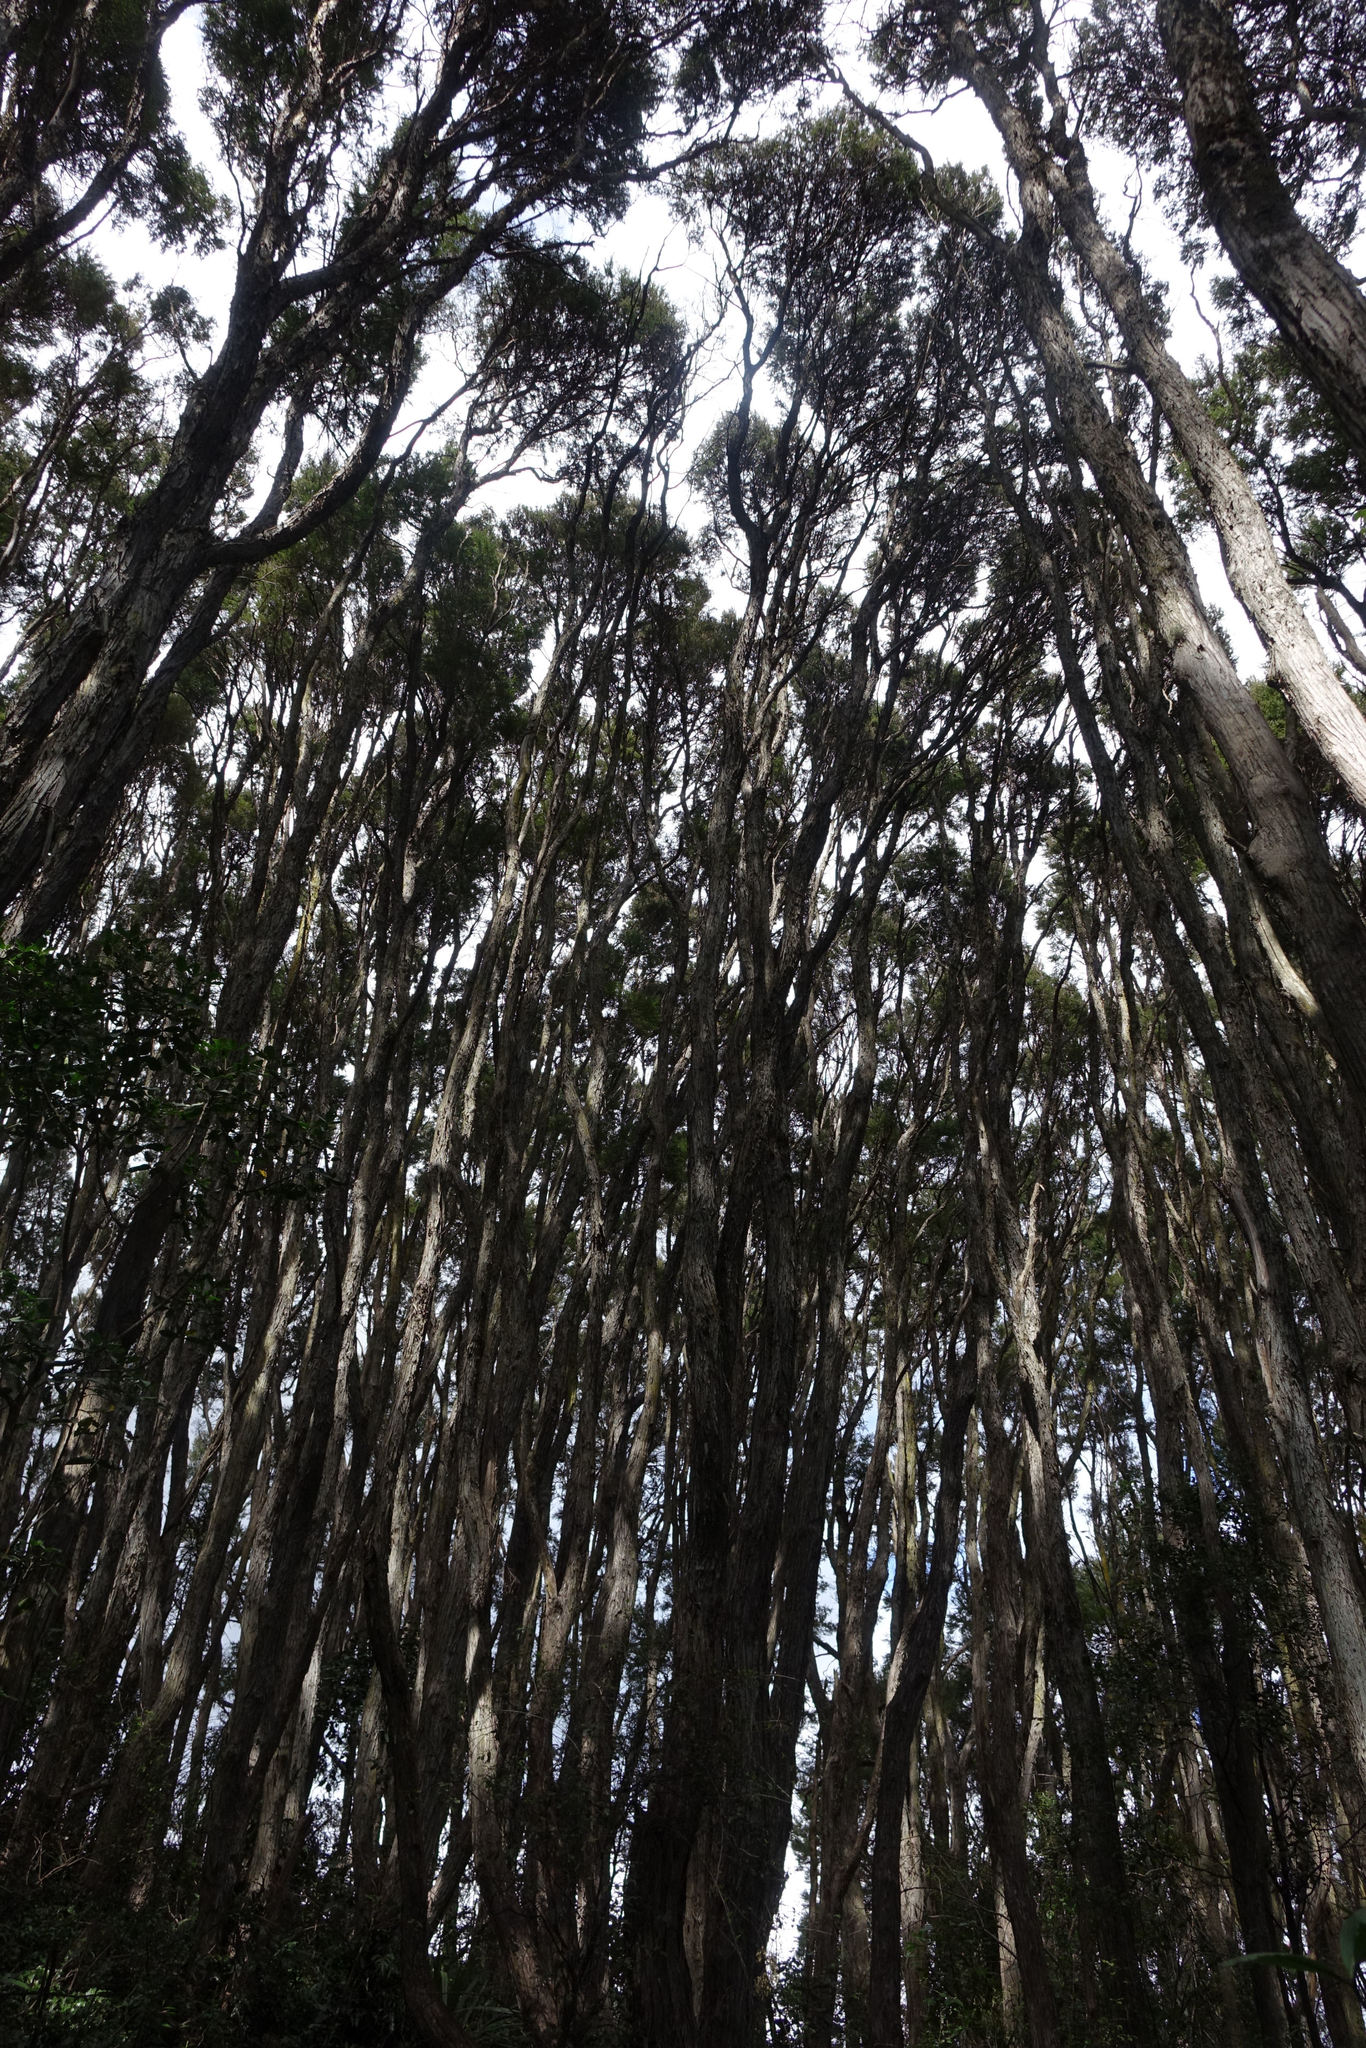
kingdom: Plantae
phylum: Tracheophyta
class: Magnoliopsida
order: Myrtales
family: Myrtaceae
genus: Kunzea
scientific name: Kunzea robusta
